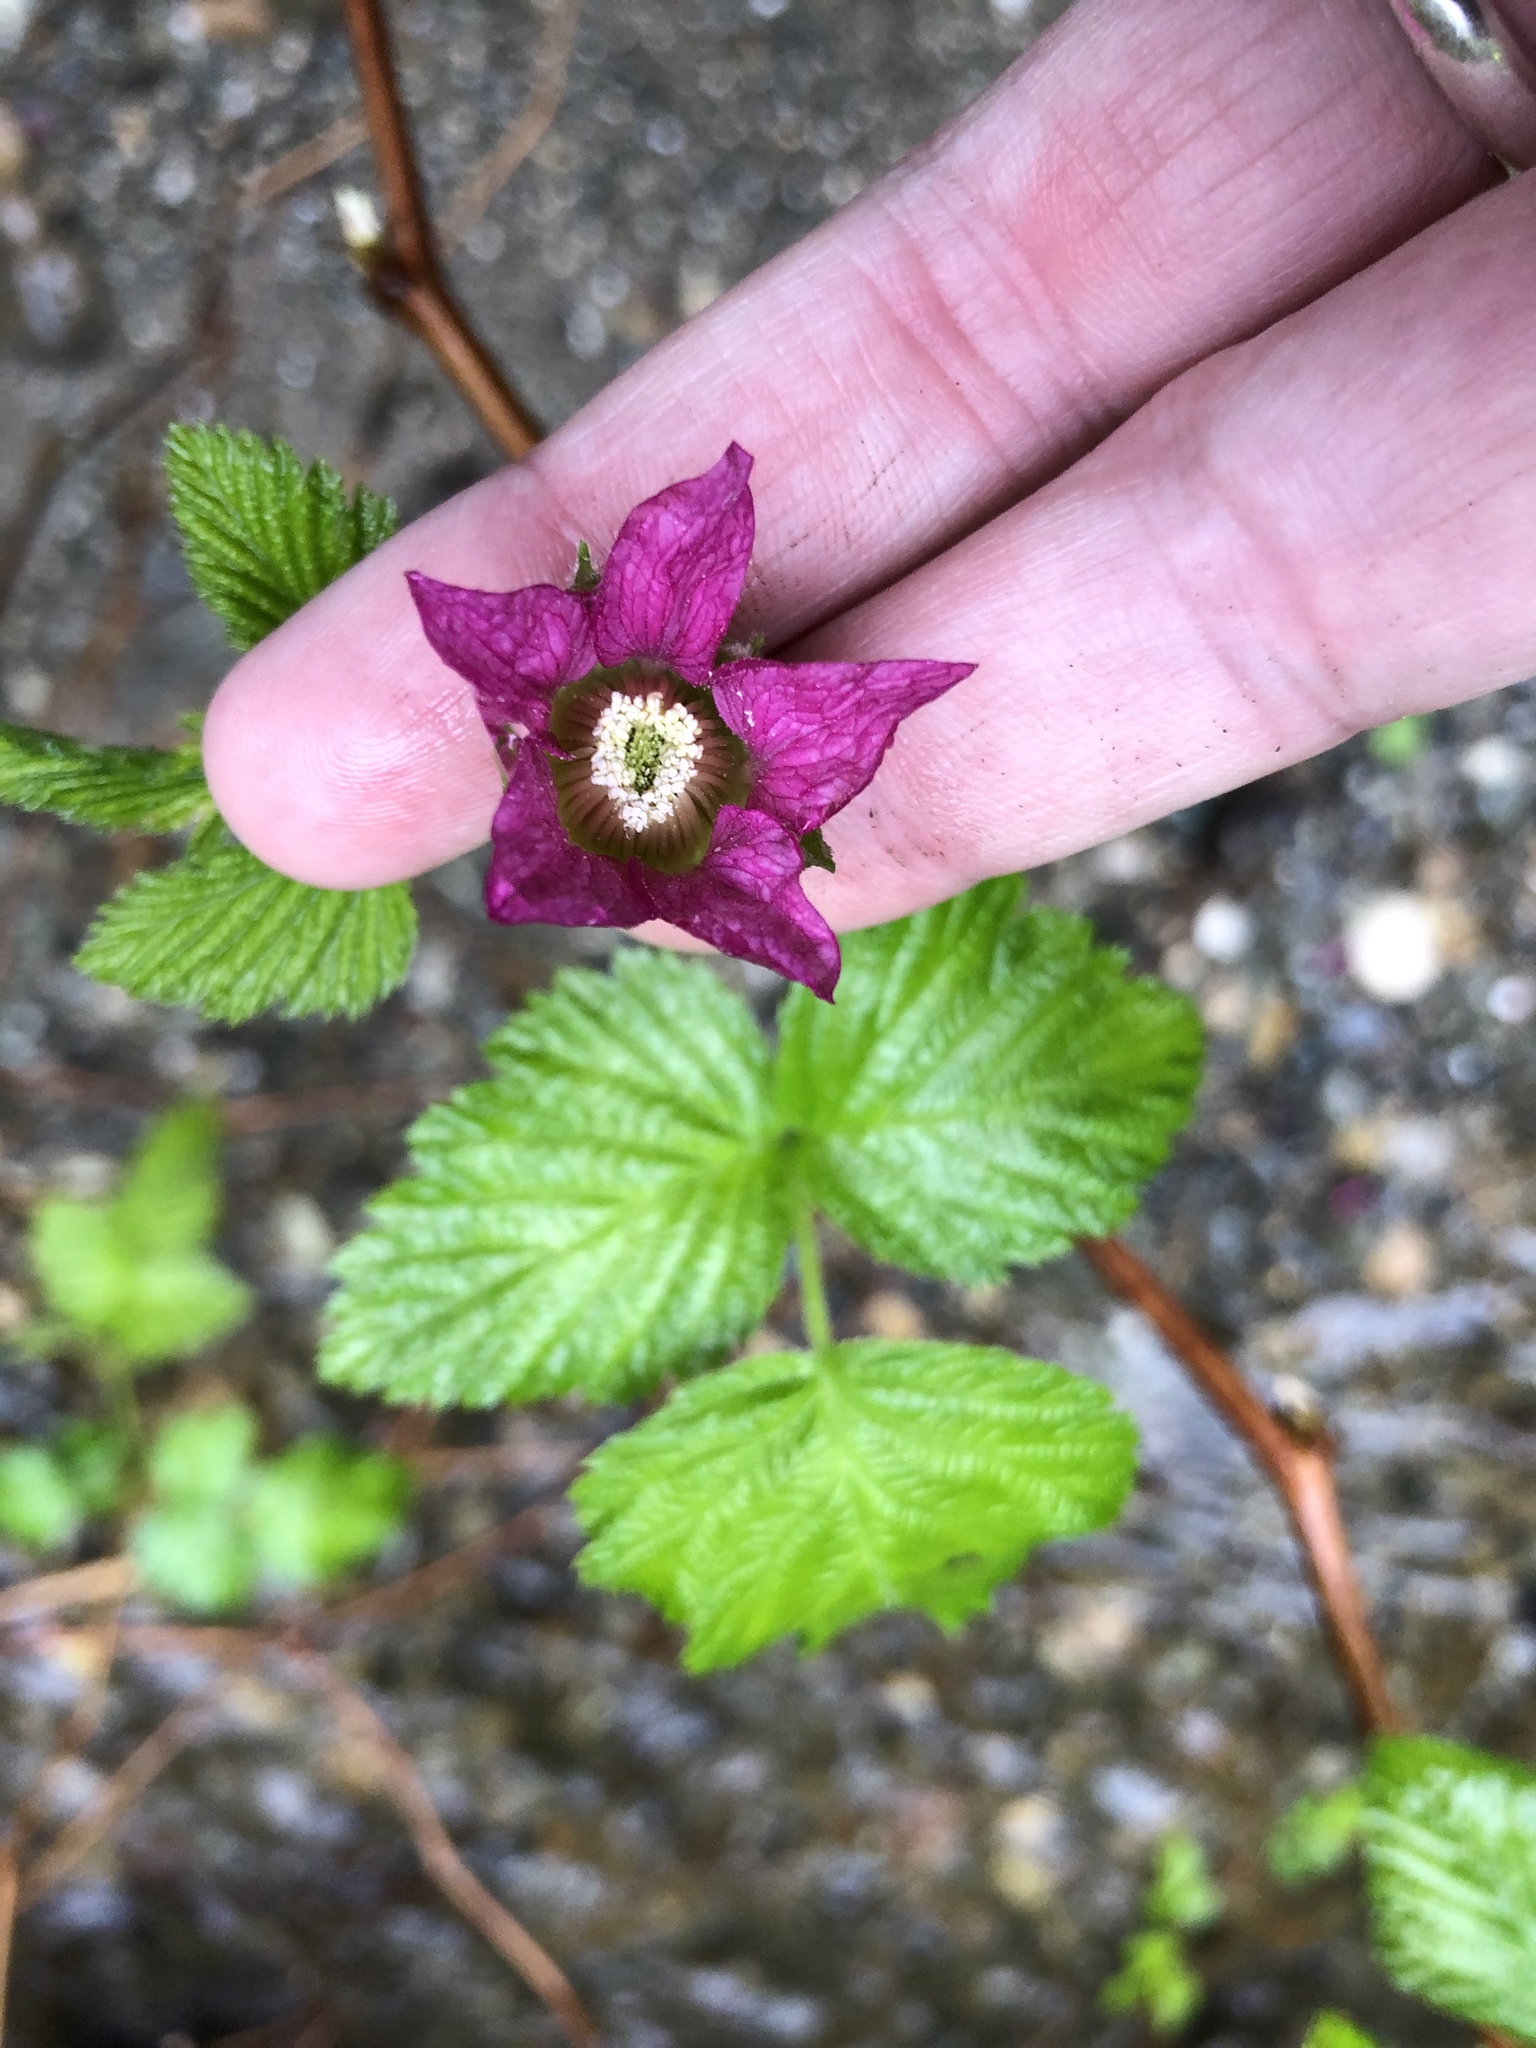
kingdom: Plantae
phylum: Tracheophyta
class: Magnoliopsida
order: Rosales
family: Rosaceae
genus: Rubus
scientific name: Rubus spectabilis
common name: Salmonberry
